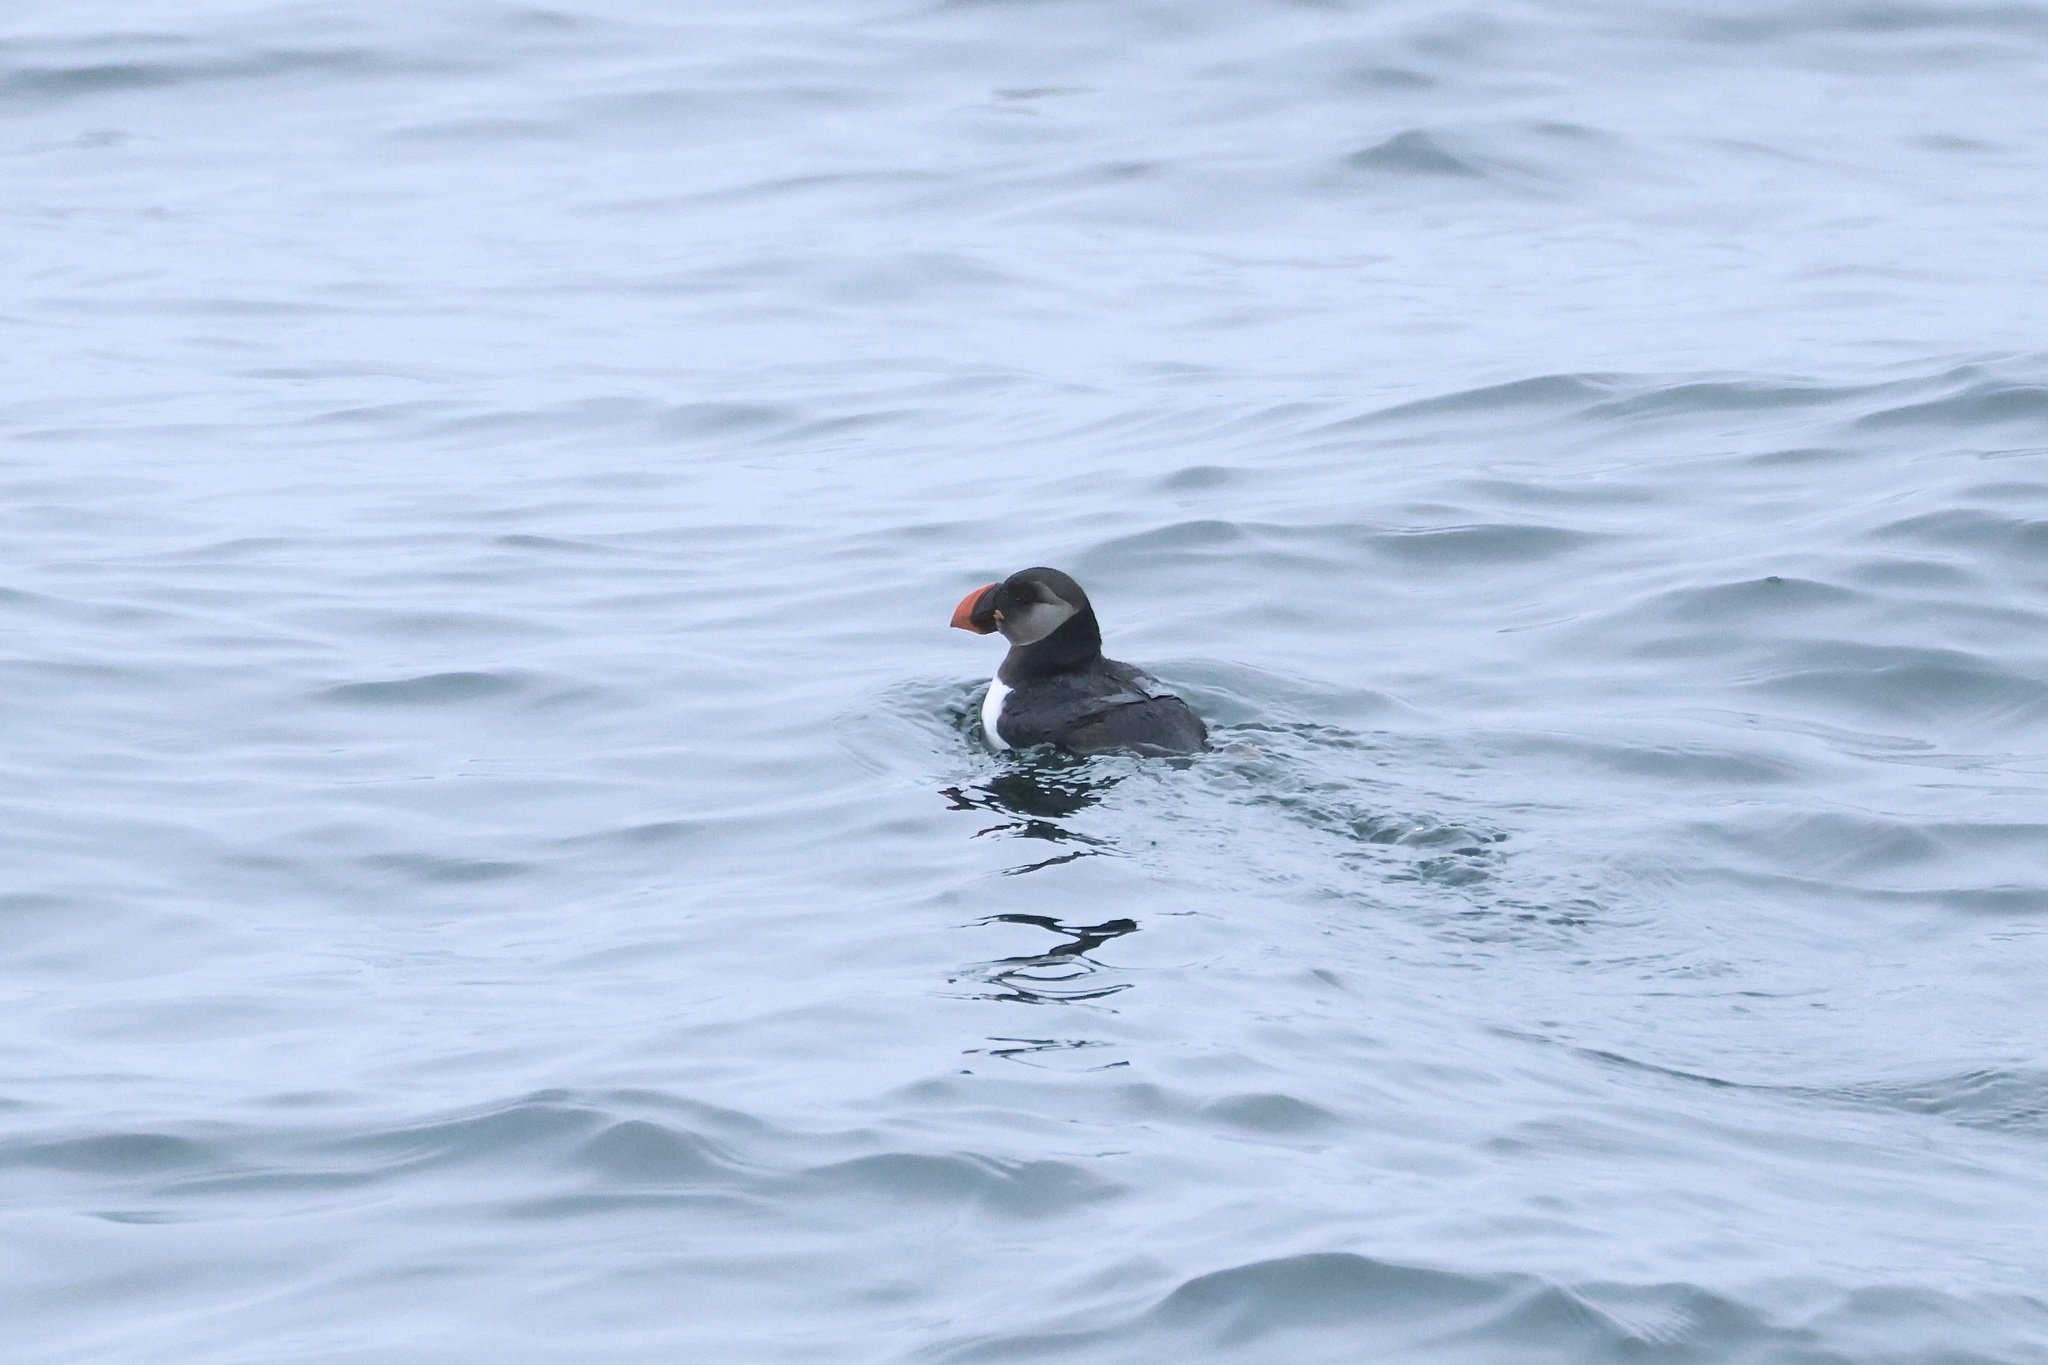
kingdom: Animalia
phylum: Chordata
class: Aves
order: Charadriiformes
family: Alcidae
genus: Fratercula
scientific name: Fratercula arctica
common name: Atlantic puffin
